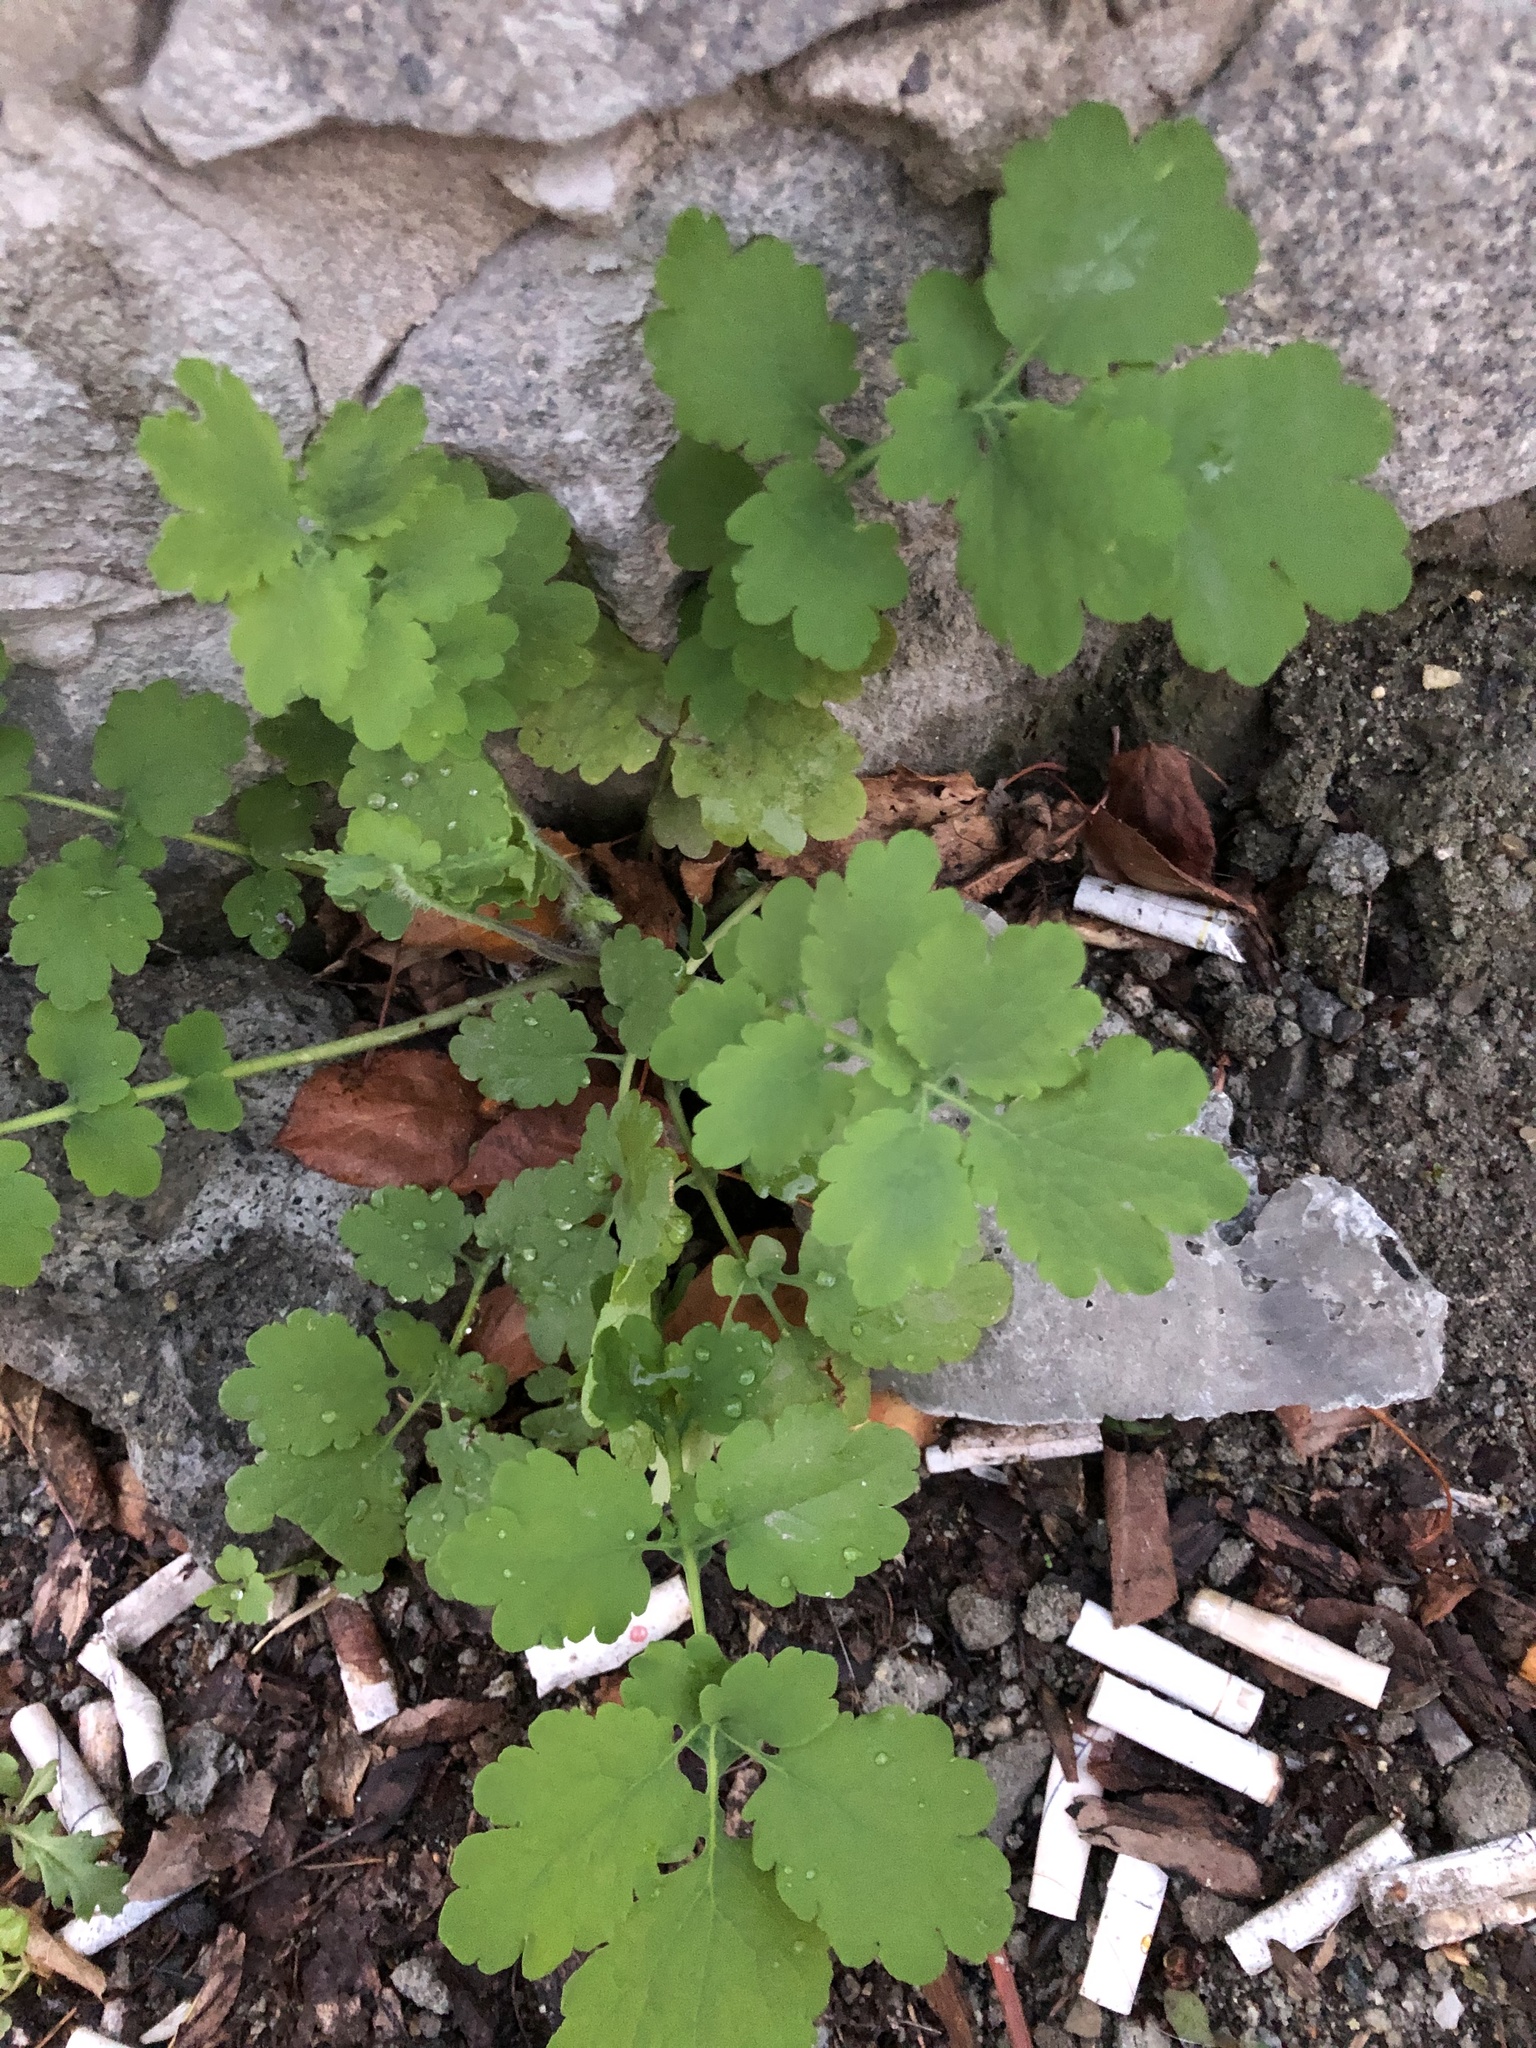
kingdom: Plantae
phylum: Tracheophyta
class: Magnoliopsida
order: Ranunculales
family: Papaveraceae
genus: Chelidonium
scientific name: Chelidonium majus
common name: Greater celandine
